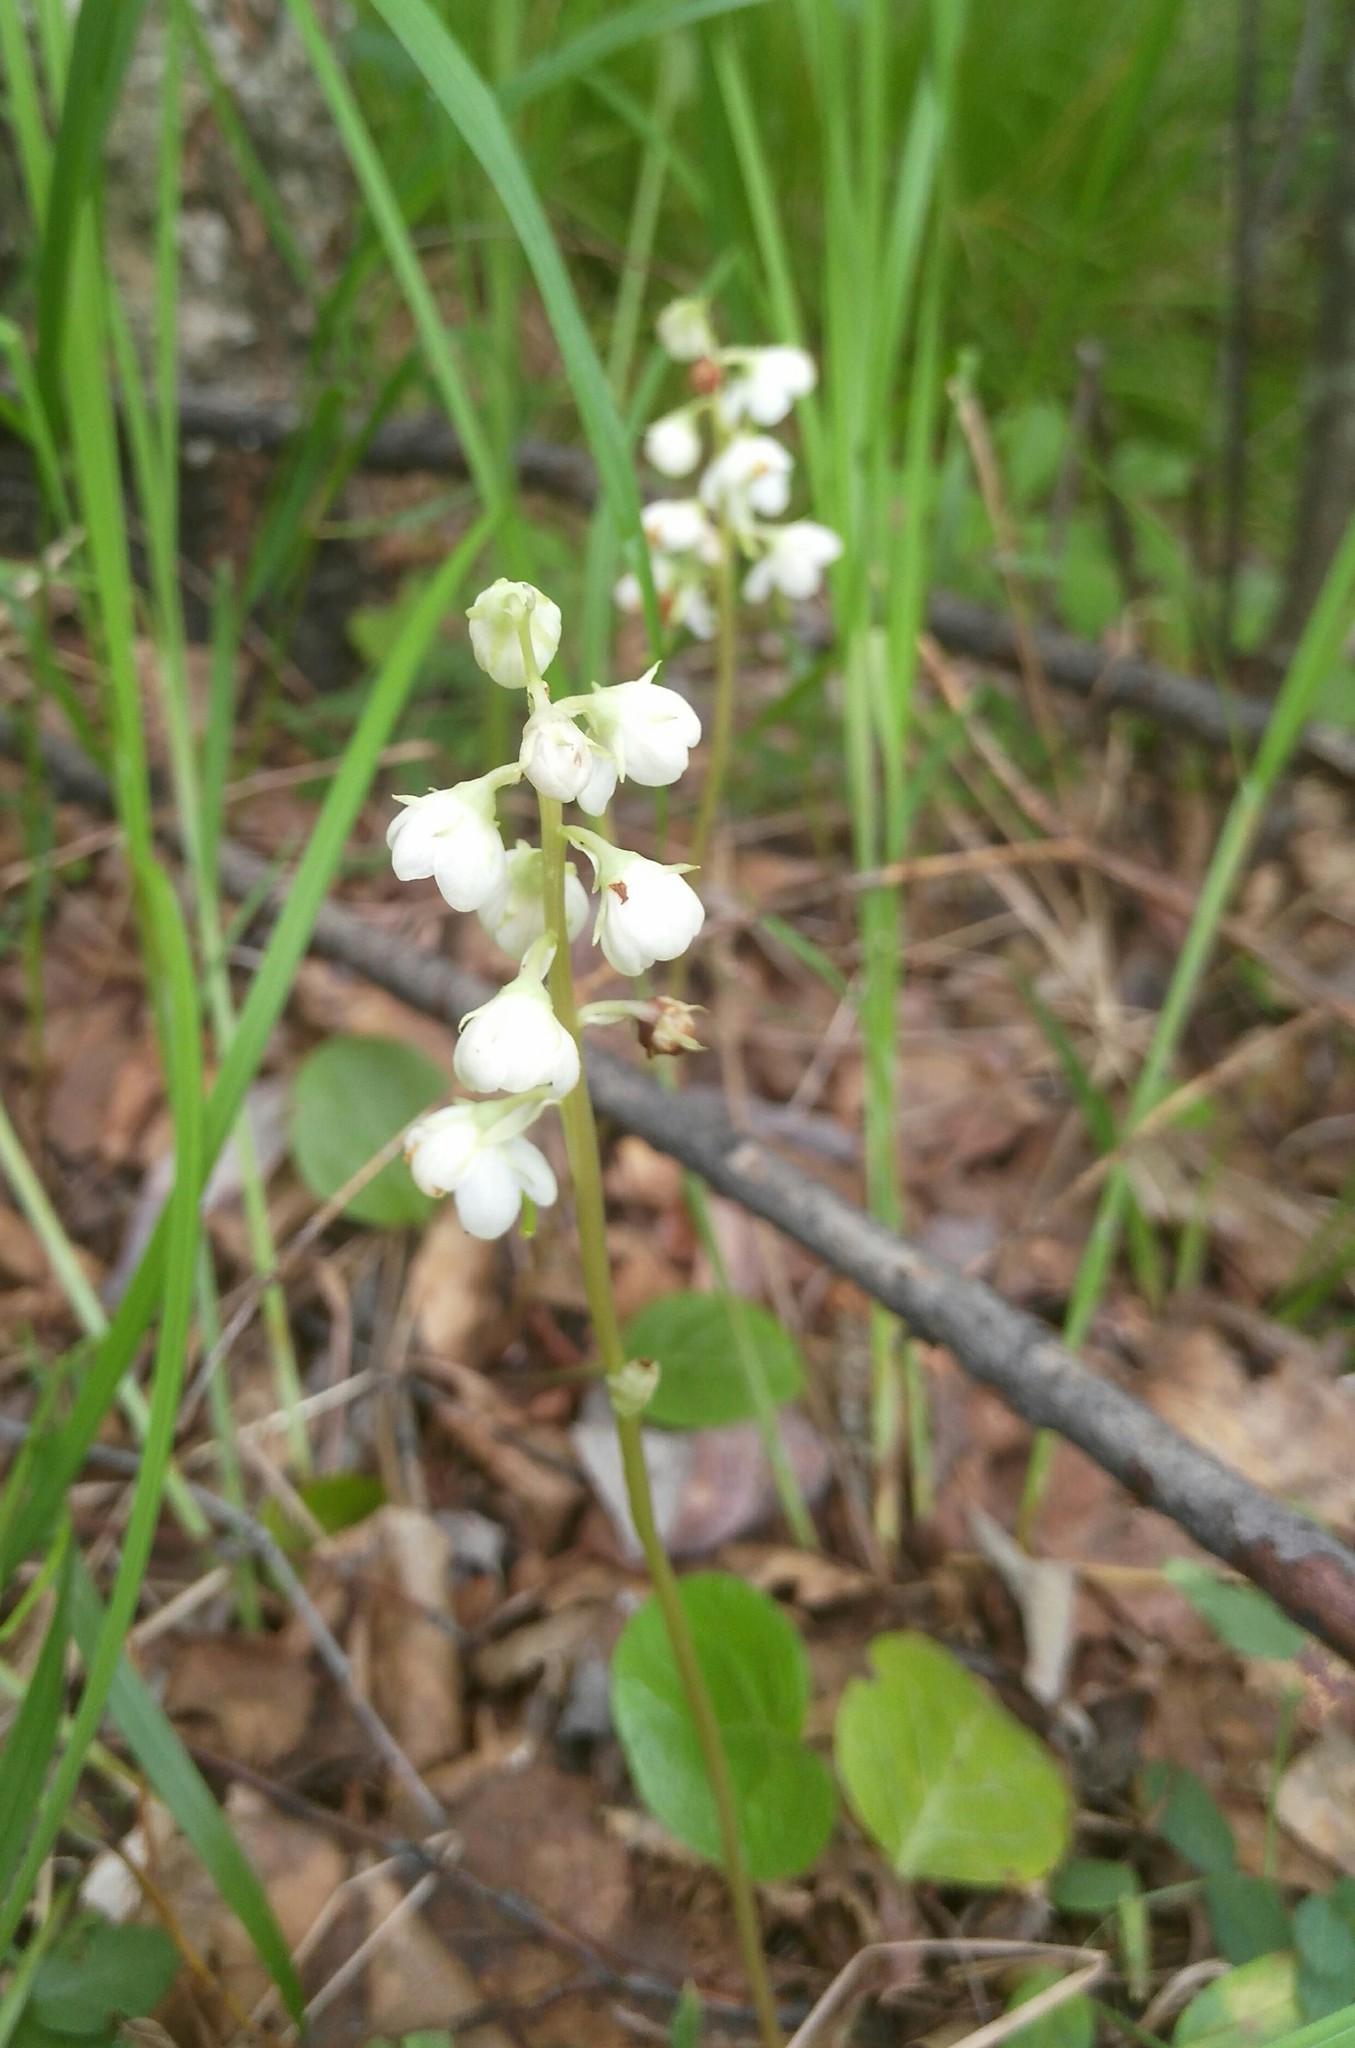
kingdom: Plantae
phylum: Tracheophyta
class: Magnoliopsida
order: Ericales
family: Ericaceae
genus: Pyrola
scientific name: Pyrola rotundifolia
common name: Round-leaved wintergreen
